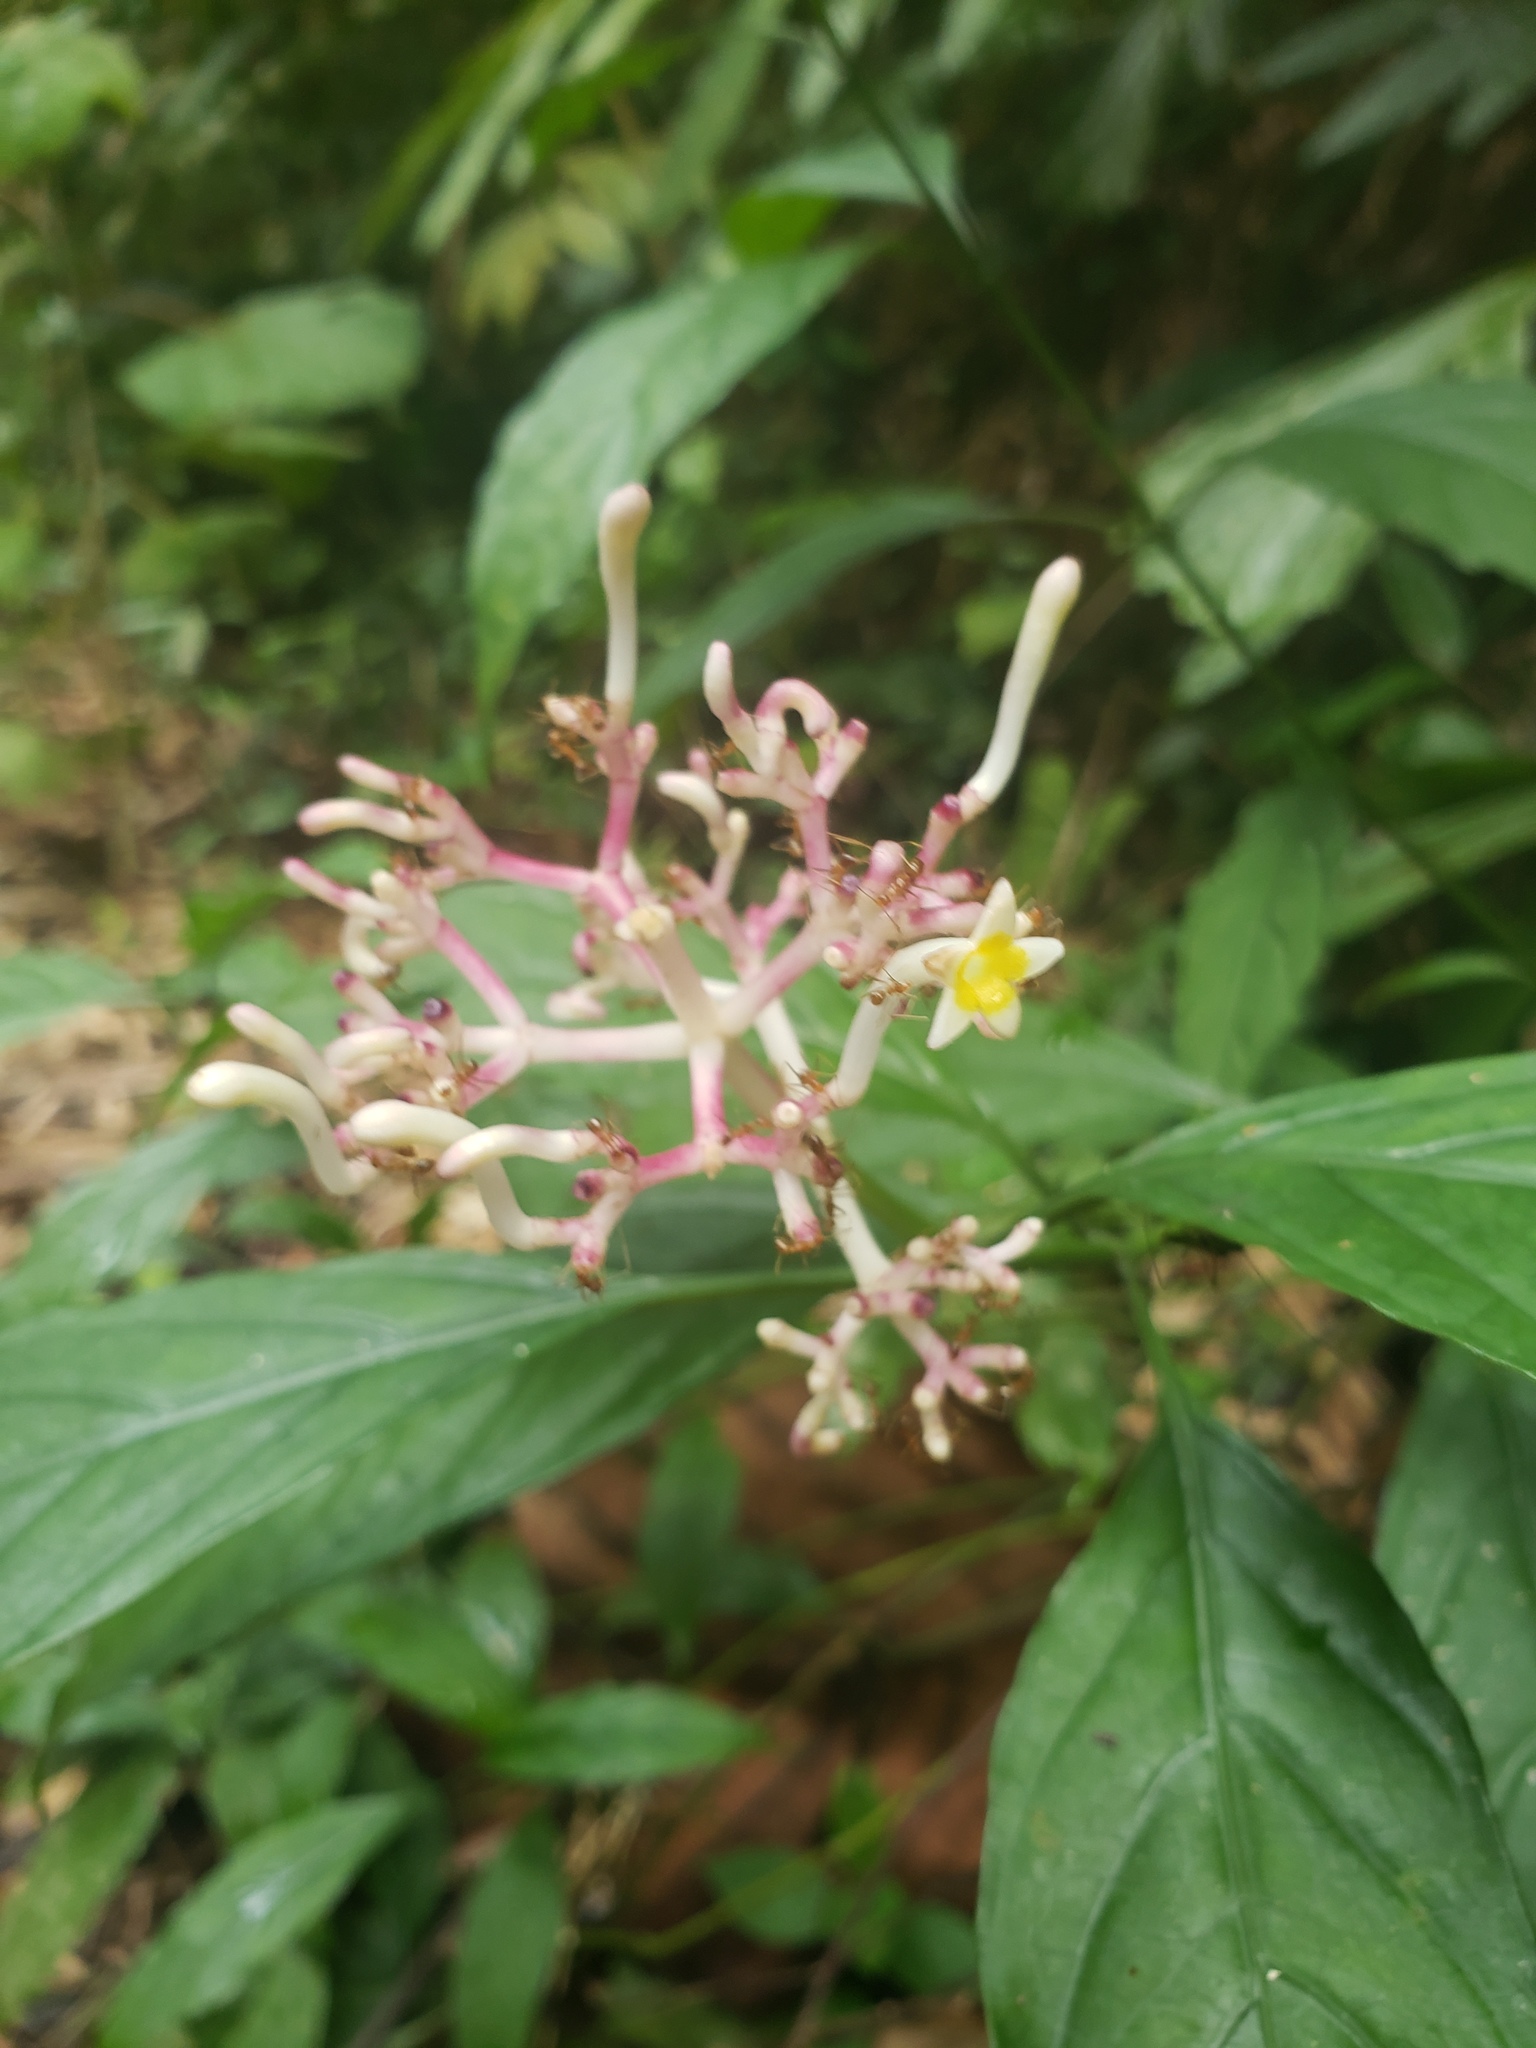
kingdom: Plantae
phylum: Tracheophyta
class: Magnoliopsida
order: Gentianales
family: Rubiaceae
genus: Chassalia
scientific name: Chassalia curviflora
